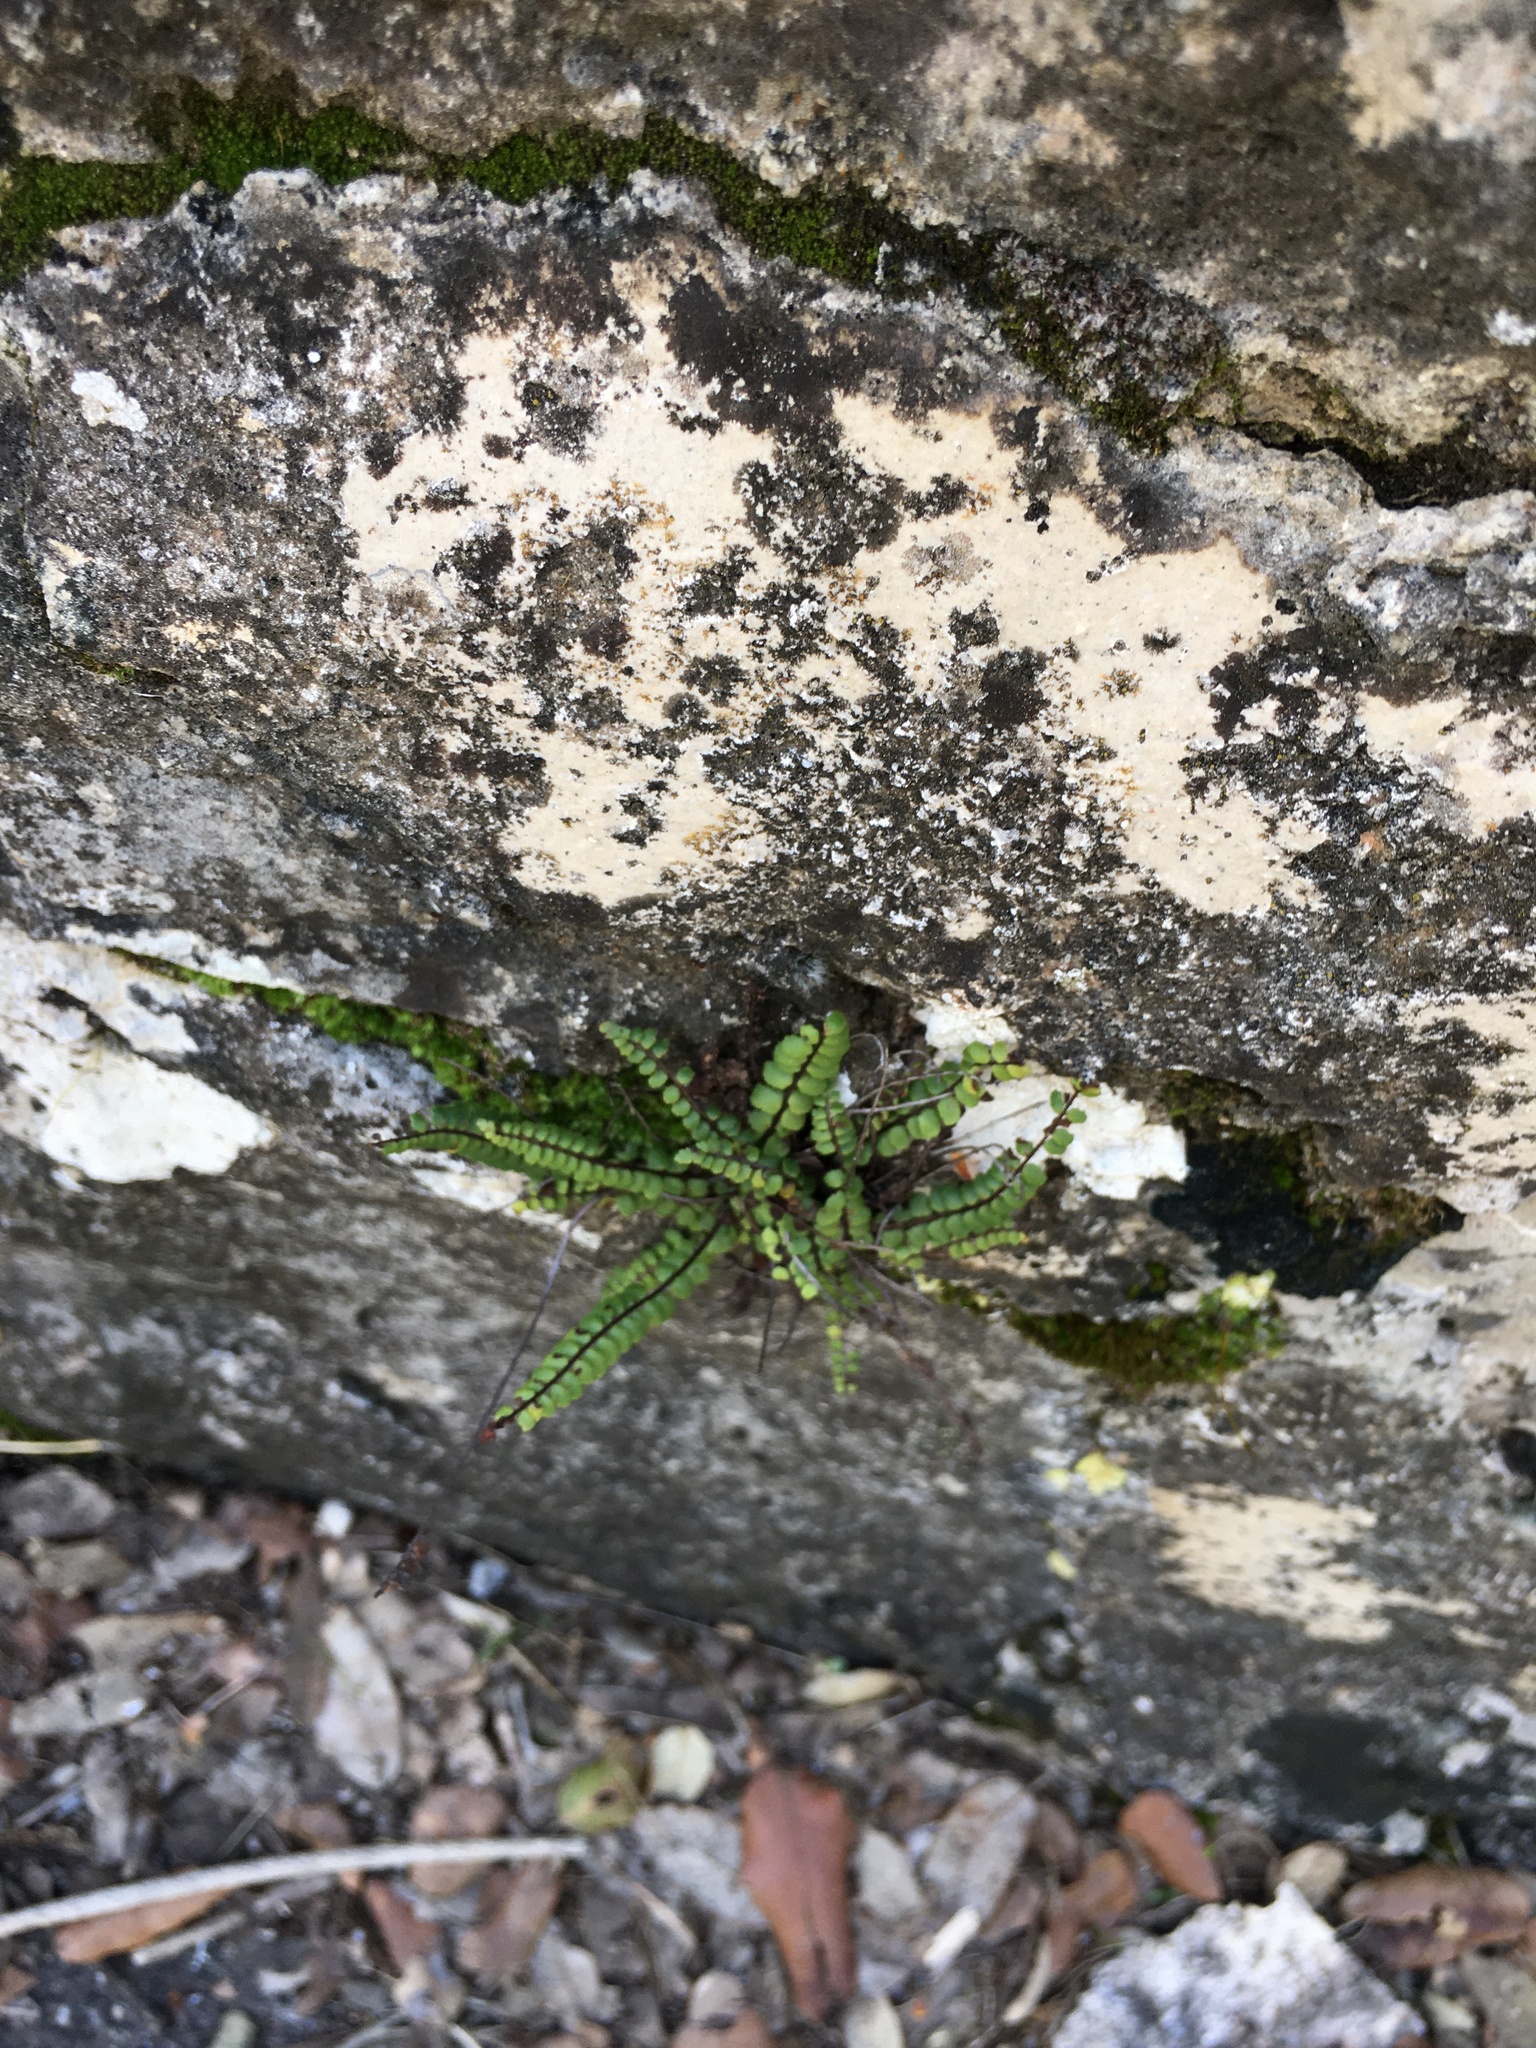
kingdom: Plantae
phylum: Tracheophyta
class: Polypodiopsida
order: Polypodiales
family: Aspleniaceae
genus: Asplenium
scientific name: Asplenium trichomanes
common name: Maidenhair spleenwort
